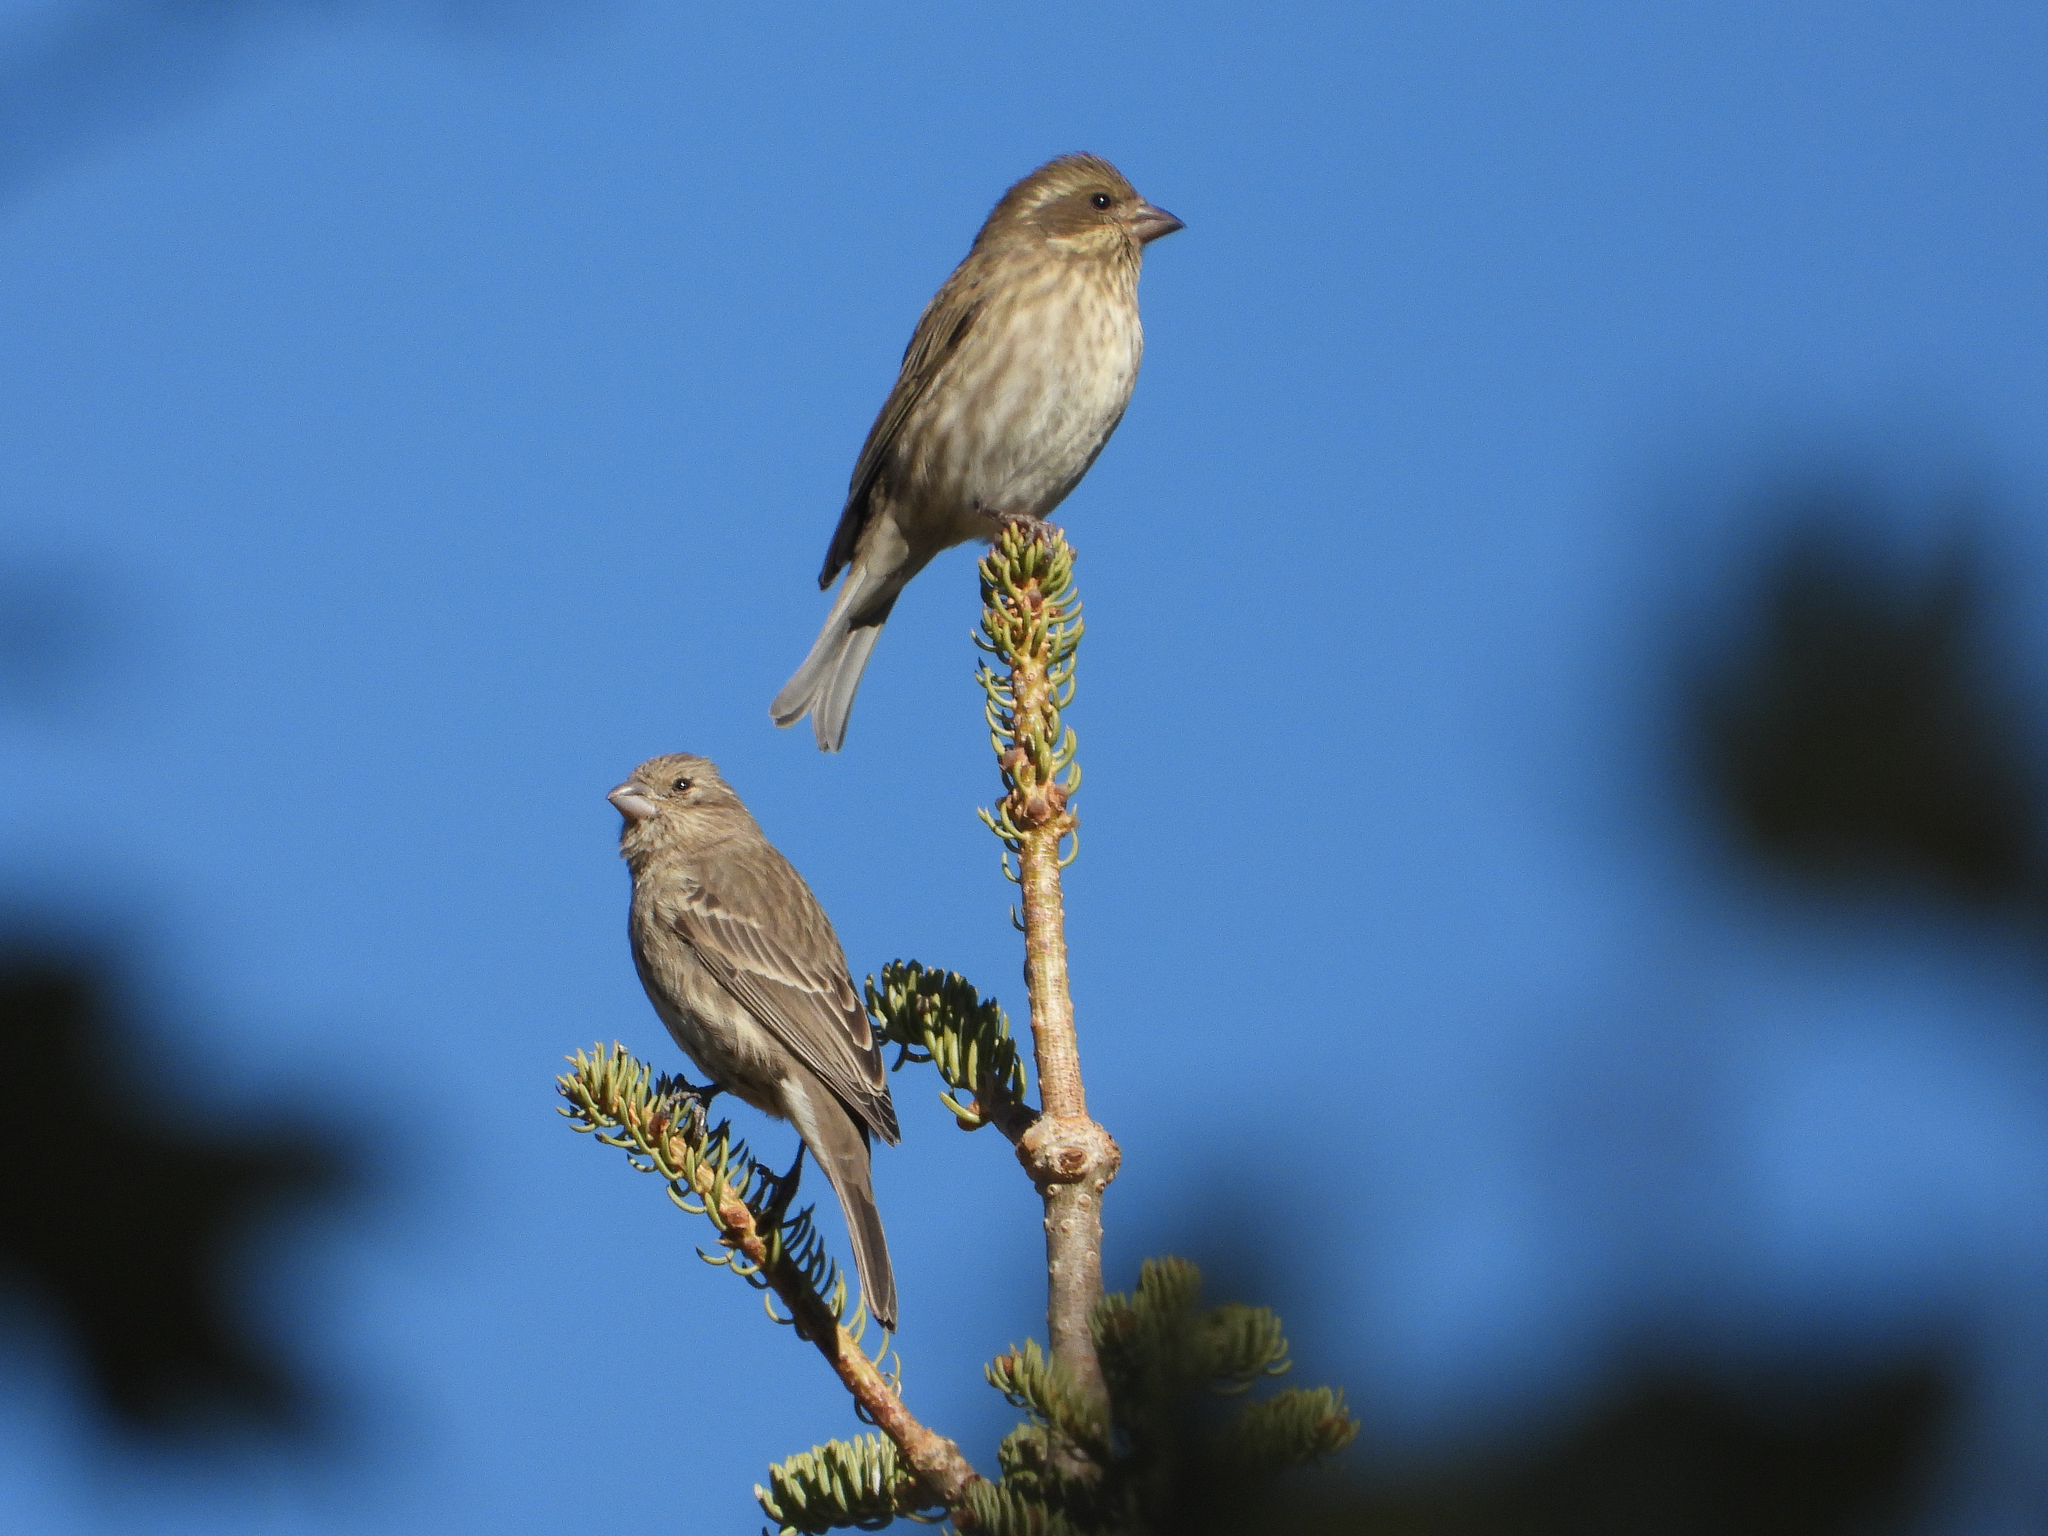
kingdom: Animalia
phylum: Chordata
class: Aves
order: Passeriformes
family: Fringillidae
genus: Haemorhous
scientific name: Haemorhous mexicanus
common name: House finch
